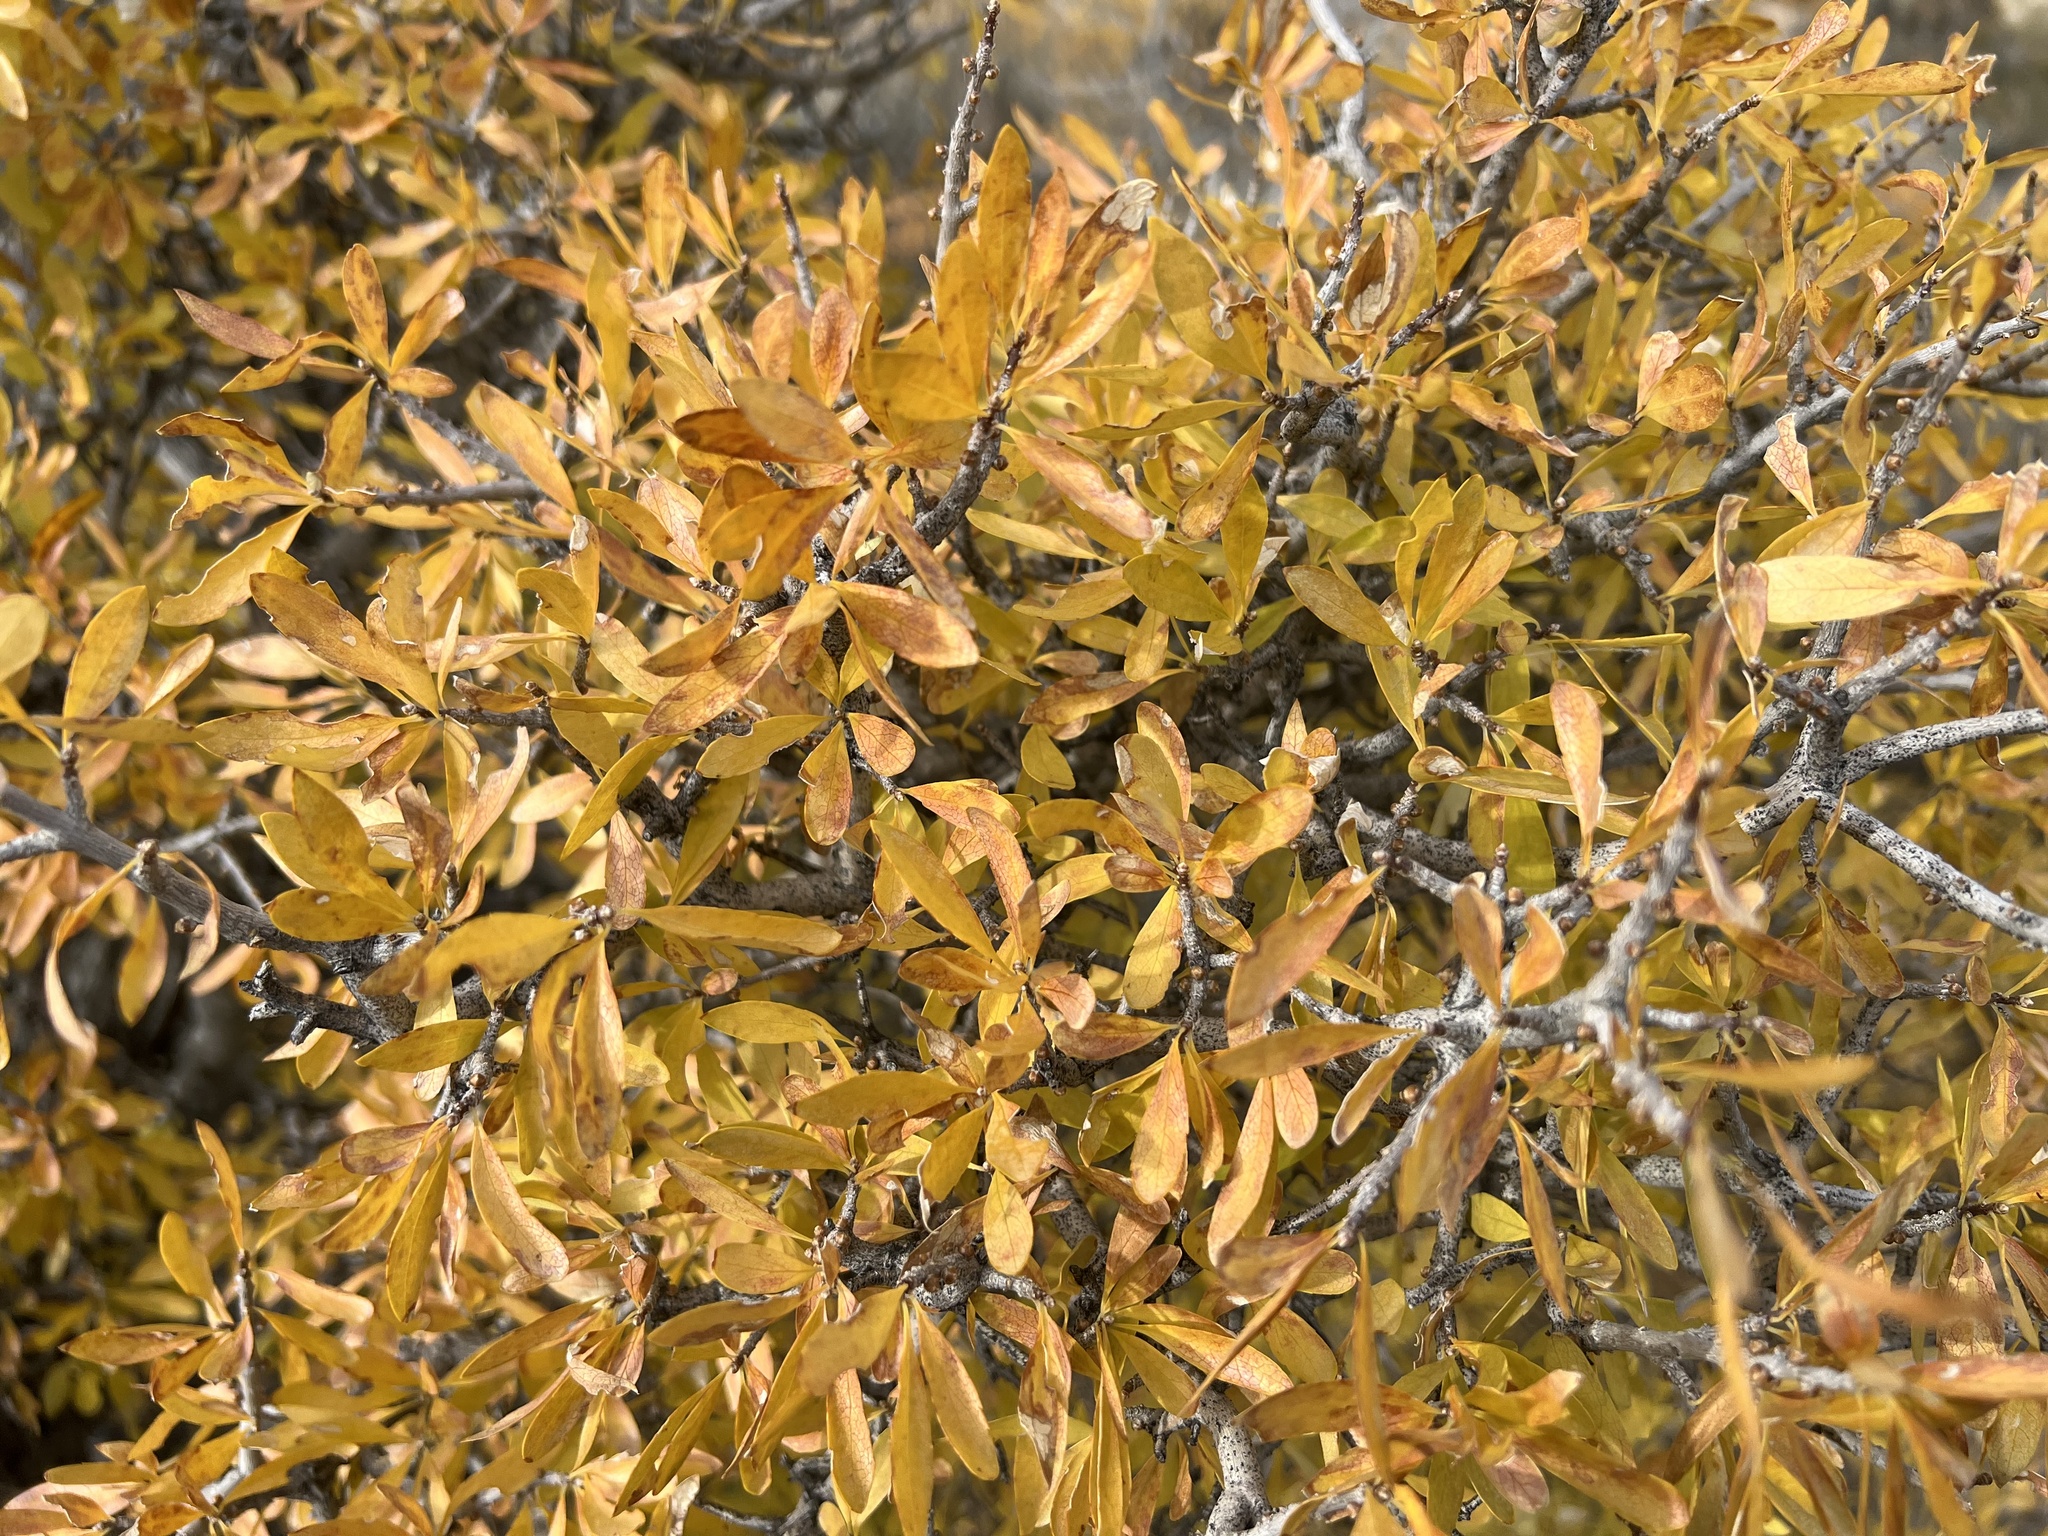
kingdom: Plantae
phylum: Tracheophyta
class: Magnoliopsida
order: Lamiales
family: Oleaceae
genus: Forestiera
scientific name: Forestiera pubescens
